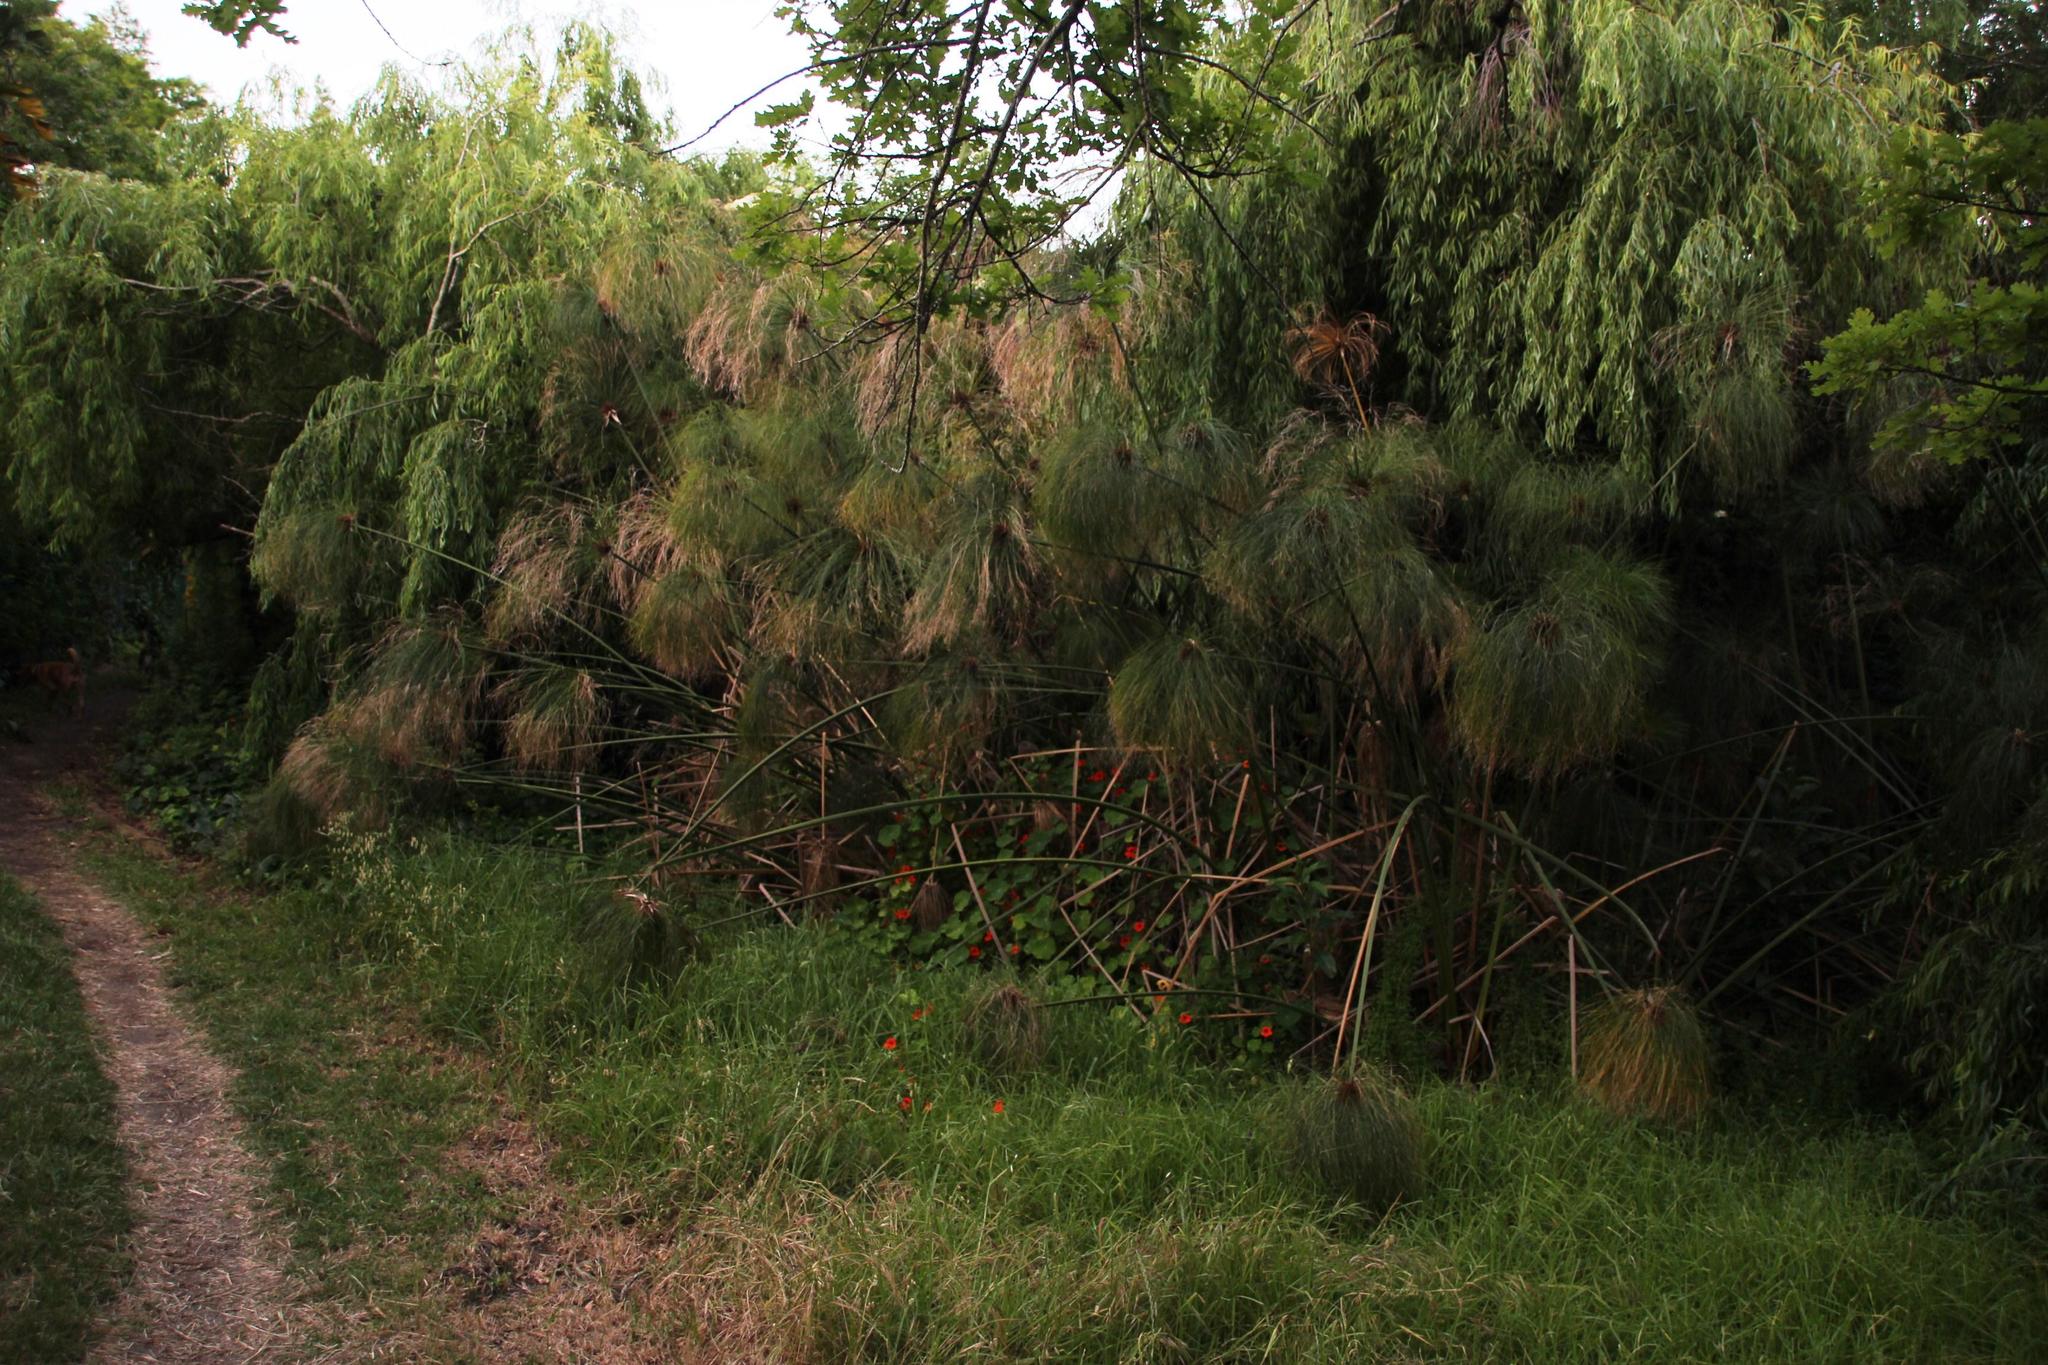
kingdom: Plantae
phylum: Tracheophyta
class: Liliopsida
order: Poales
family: Cyperaceae
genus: Cyperus
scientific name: Cyperus papyrus
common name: Papyrus
